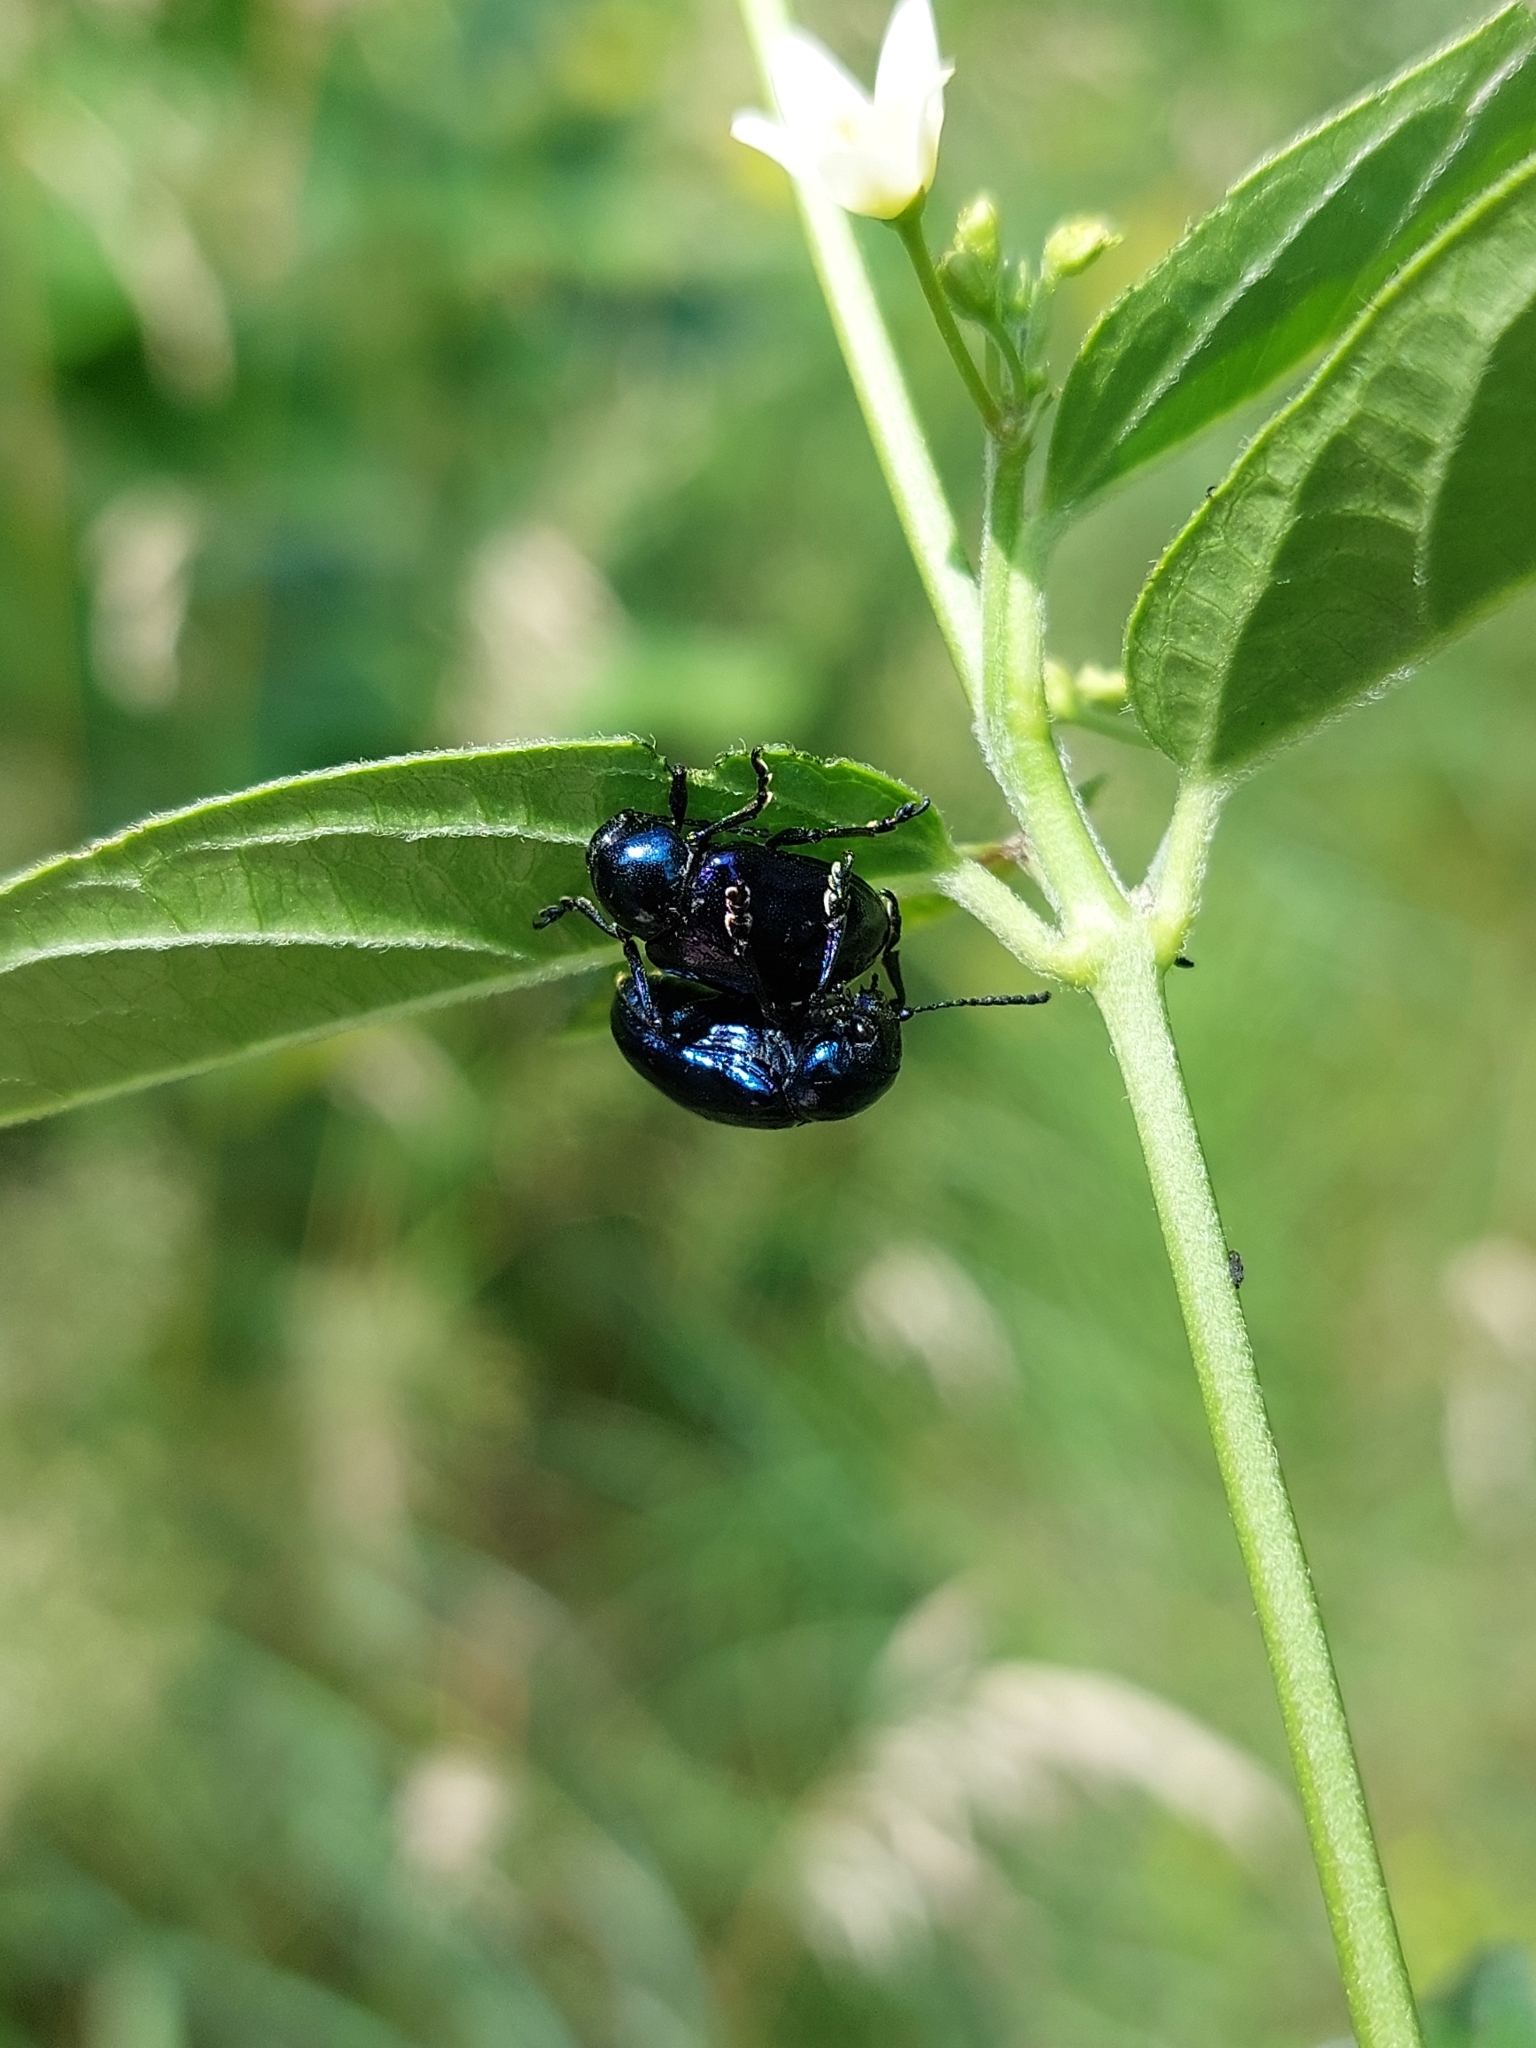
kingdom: Animalia
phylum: Arthropoda
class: Insecta
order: Coleoptera
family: Chrysomelidae
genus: Chrysochus
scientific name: Chrysochus asclepiadeus
